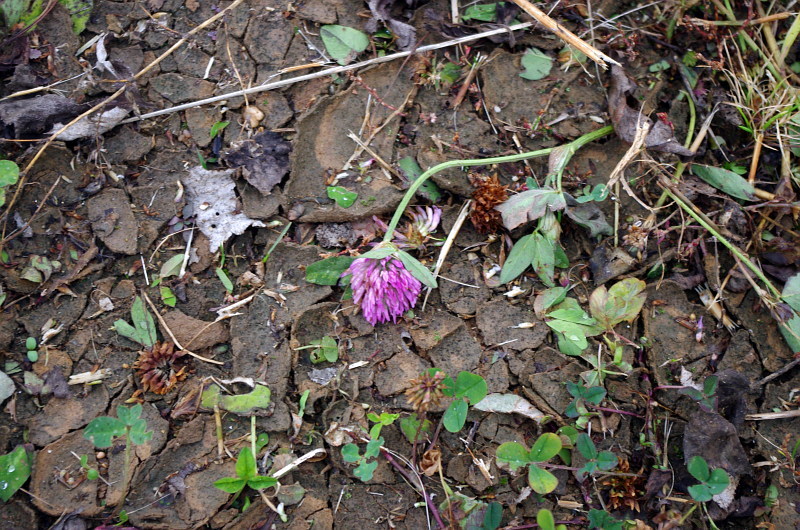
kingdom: Plantae
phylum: Tracheophyta
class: Magnoliopsida
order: Fabales
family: Fabaceae
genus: Trifolium
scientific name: Trifolium pratense
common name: Red clover
